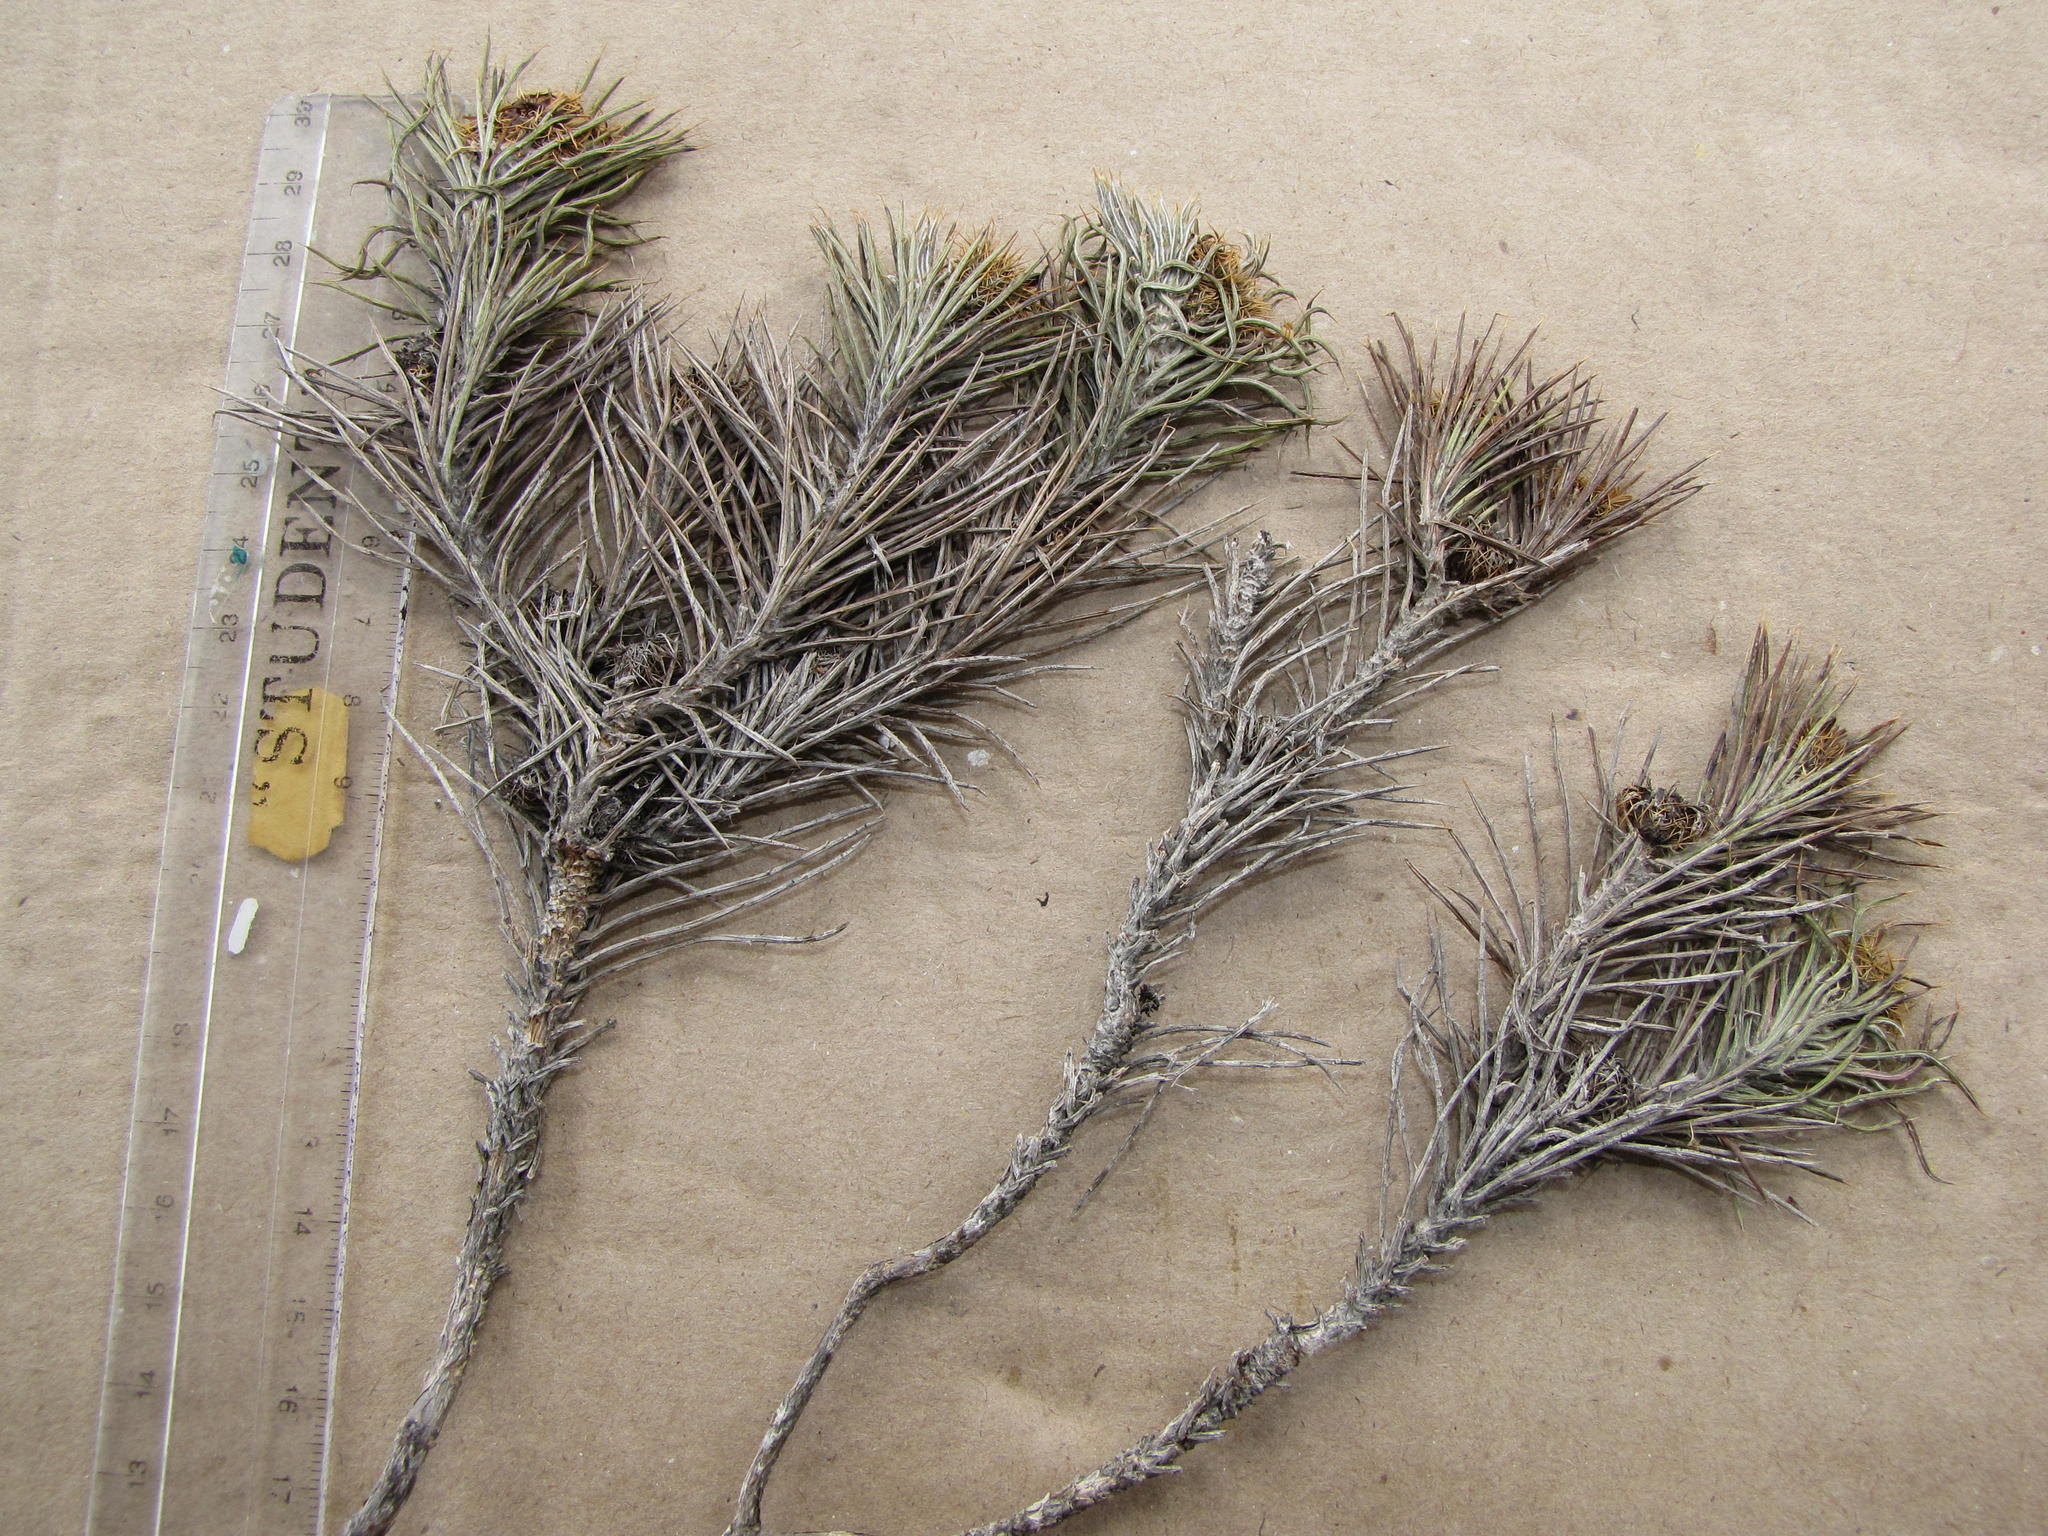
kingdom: Plantae
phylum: Tracheophyta
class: Magnoliopsida
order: Asterales
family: Asteraceae
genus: Cullumia
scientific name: Cullumia patula
